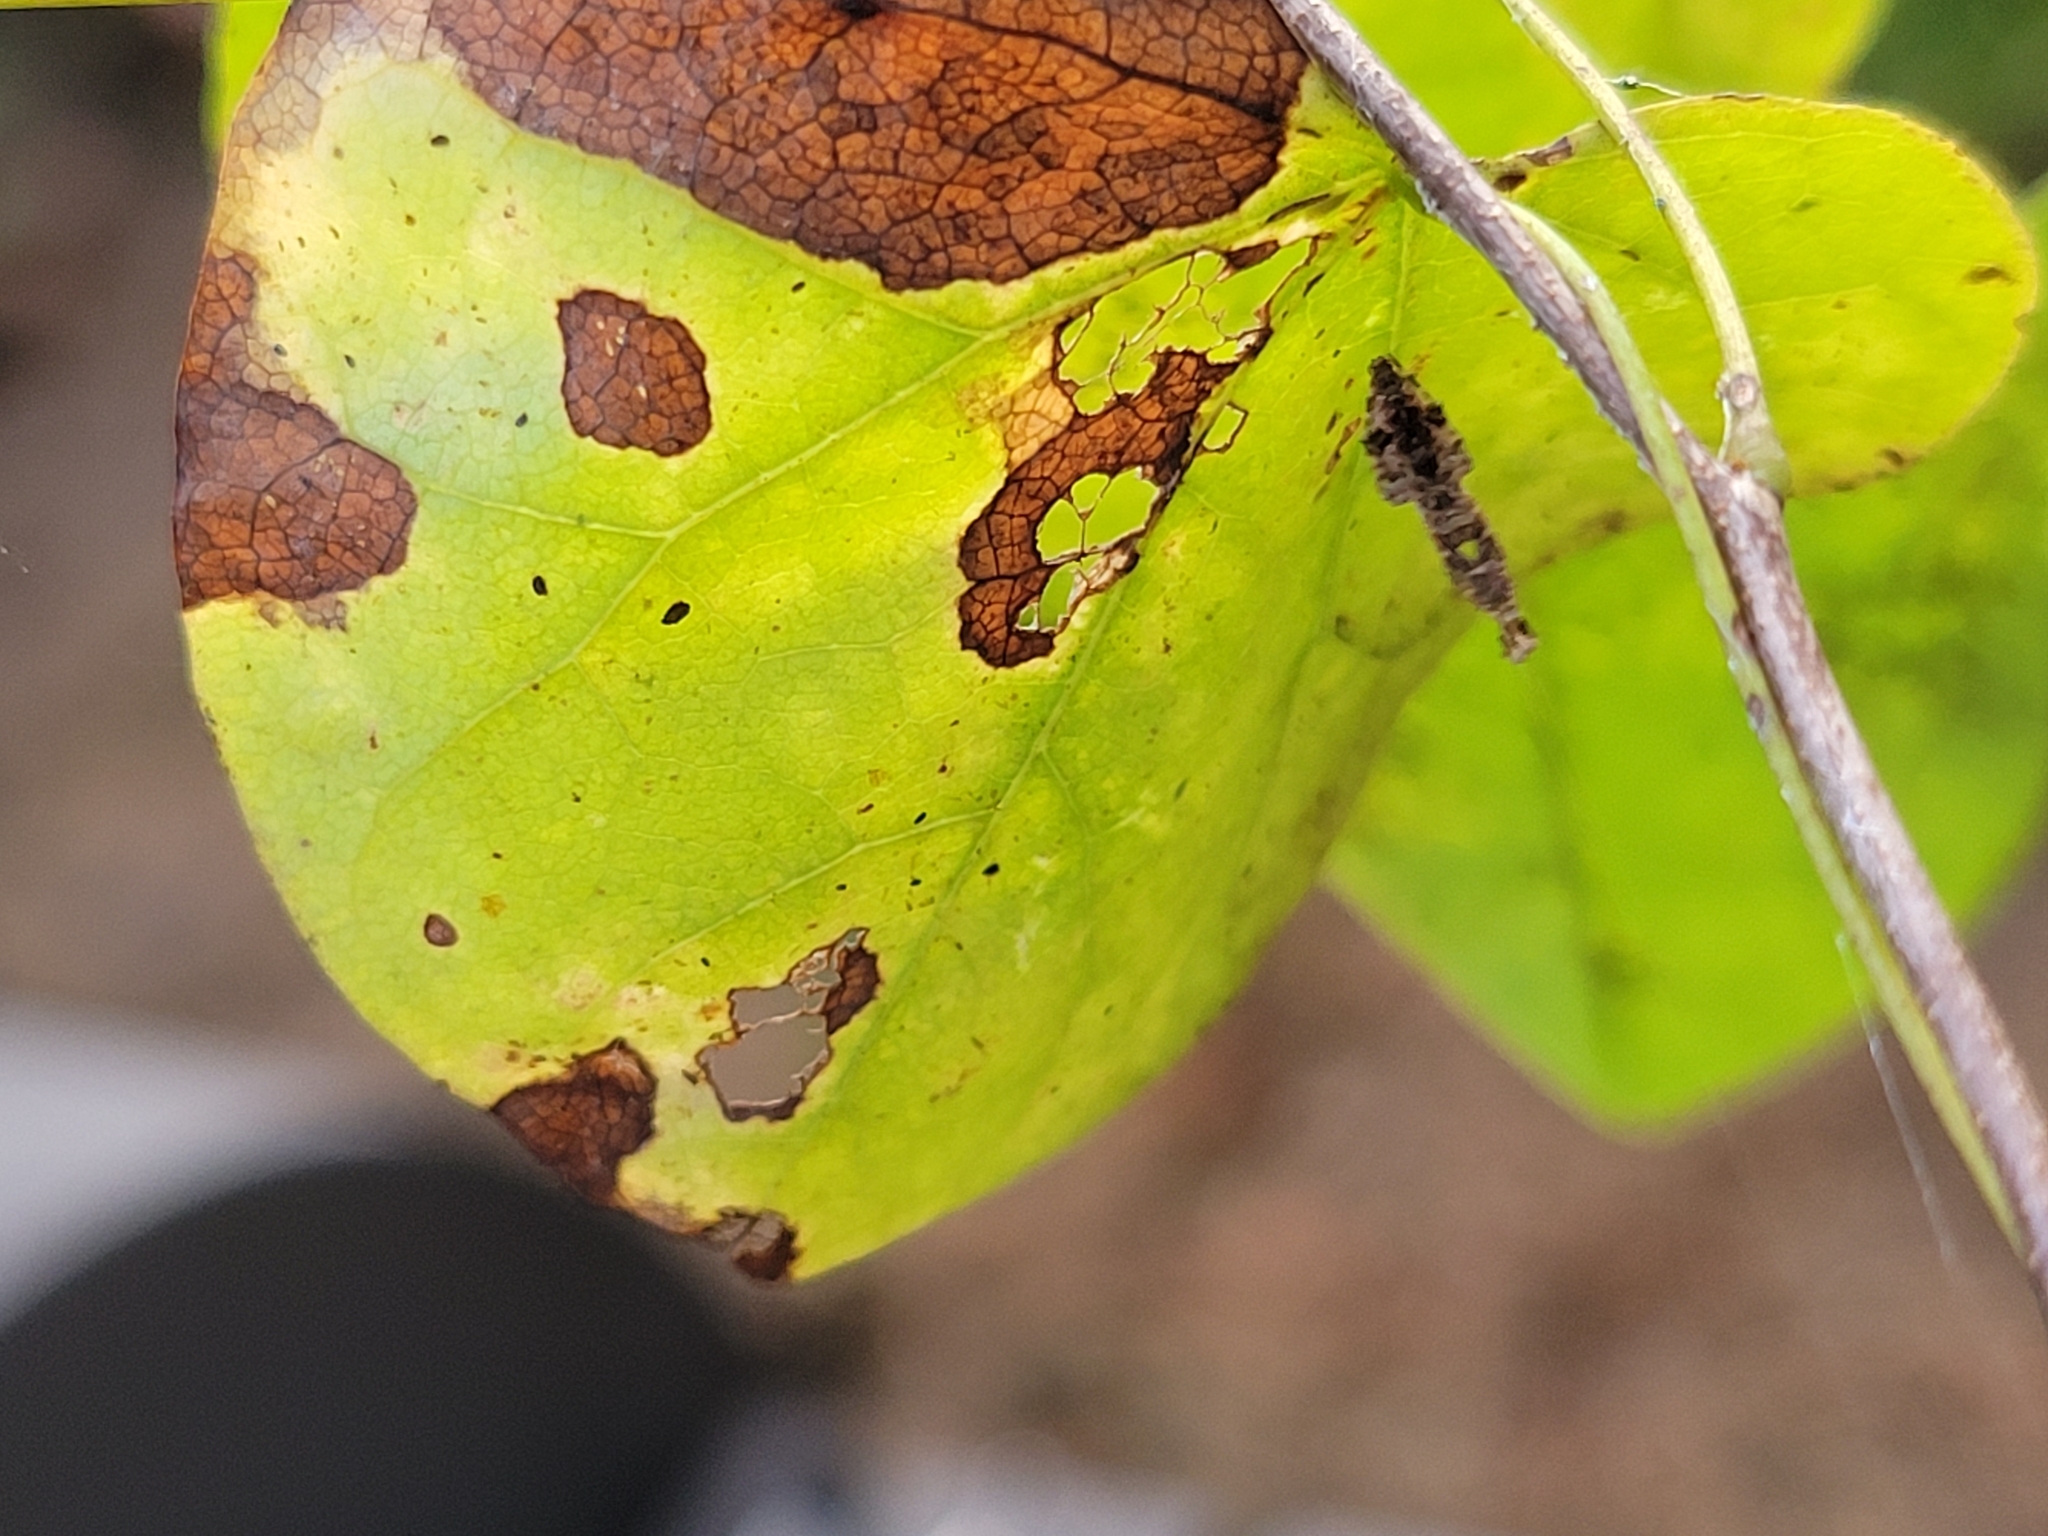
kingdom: Animalia
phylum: Arthropoda
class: Arachnida
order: Araneae
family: Uloboridae
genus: Uloborus
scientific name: Uloborus glomosus
